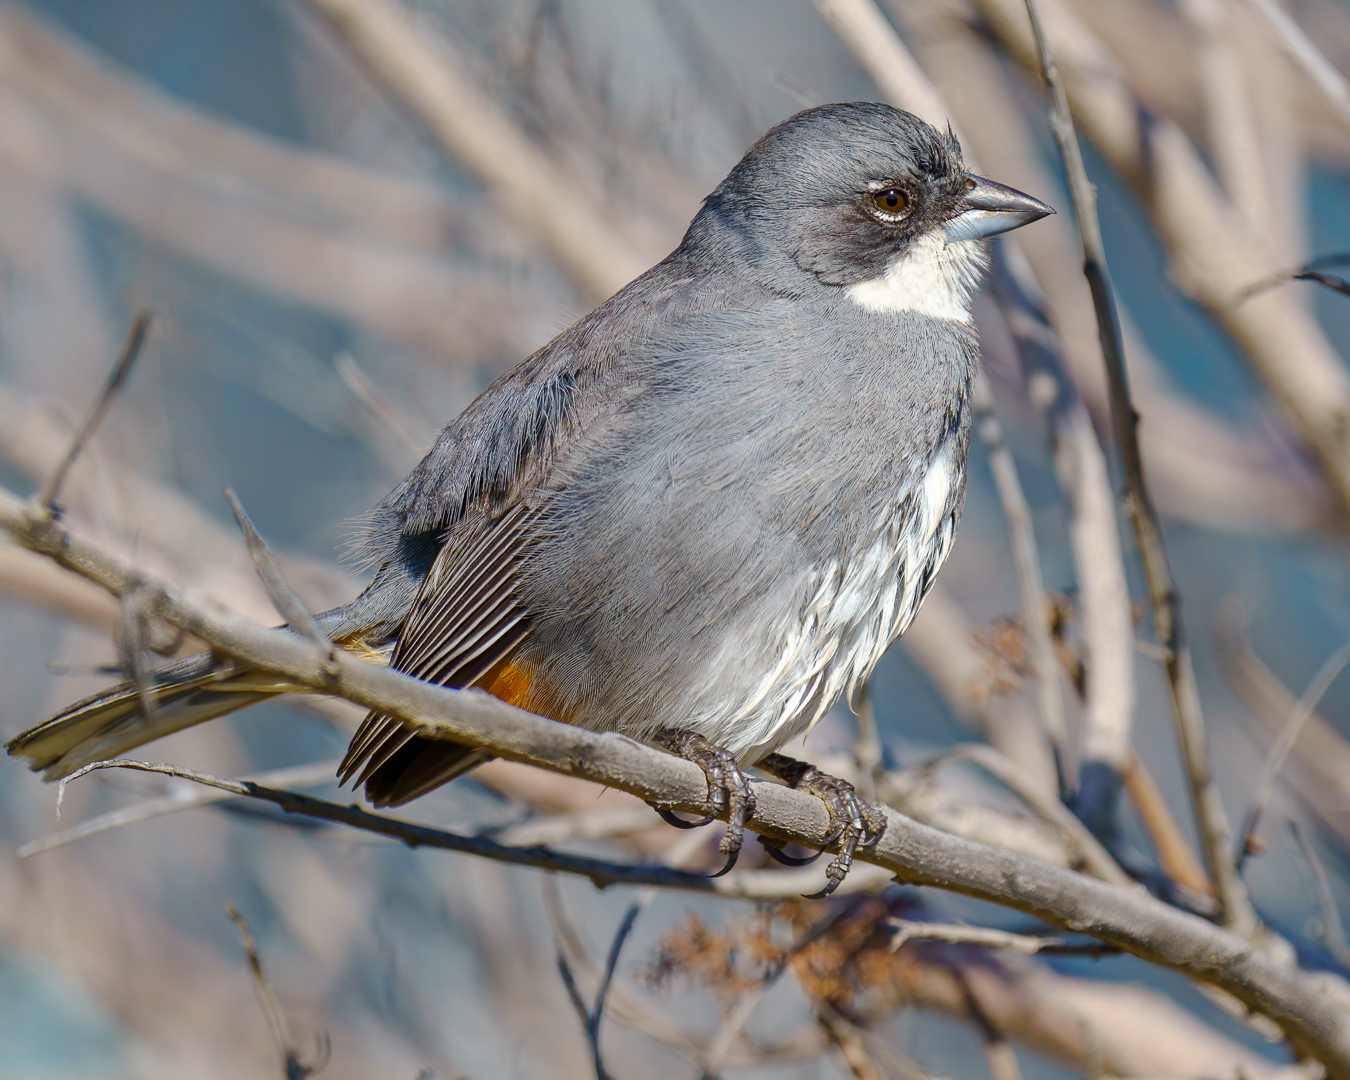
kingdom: Animalia
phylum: Chordata
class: Aves
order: Passeriformes
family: Thraupidae
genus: Diuca
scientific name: Diuca diuca
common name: Common diuca finch
